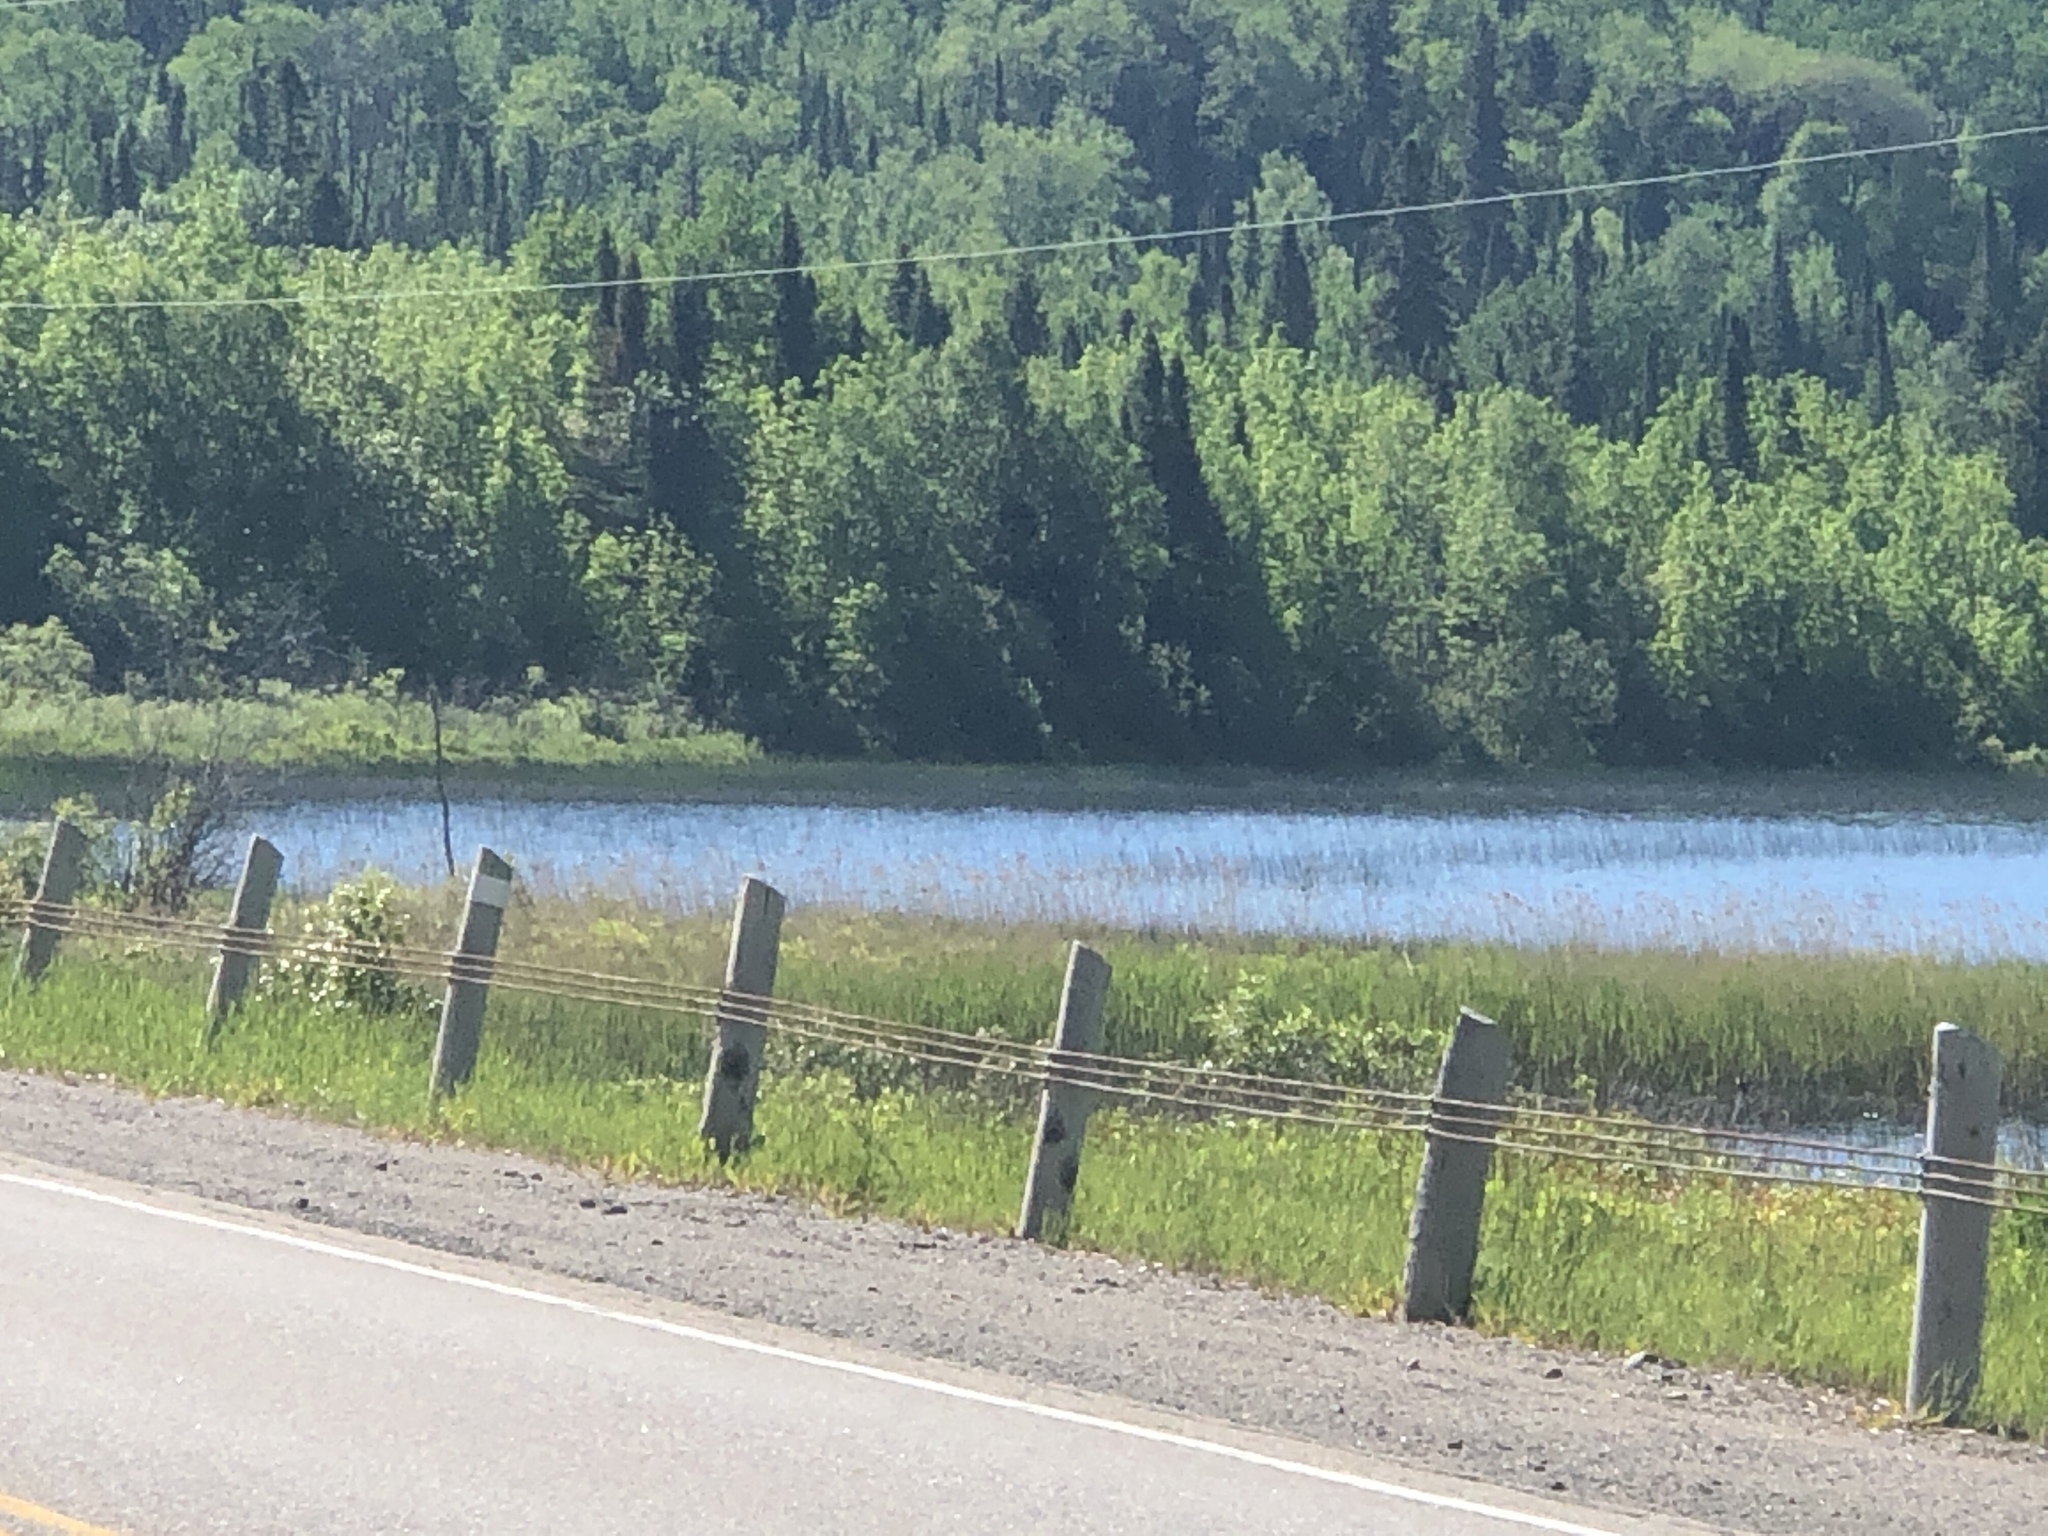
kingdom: Plantae
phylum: Tracheophyta
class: Liliopsida
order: Poales
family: Poaceae
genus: Phragmites
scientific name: Phragmites australis
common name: Common reed
